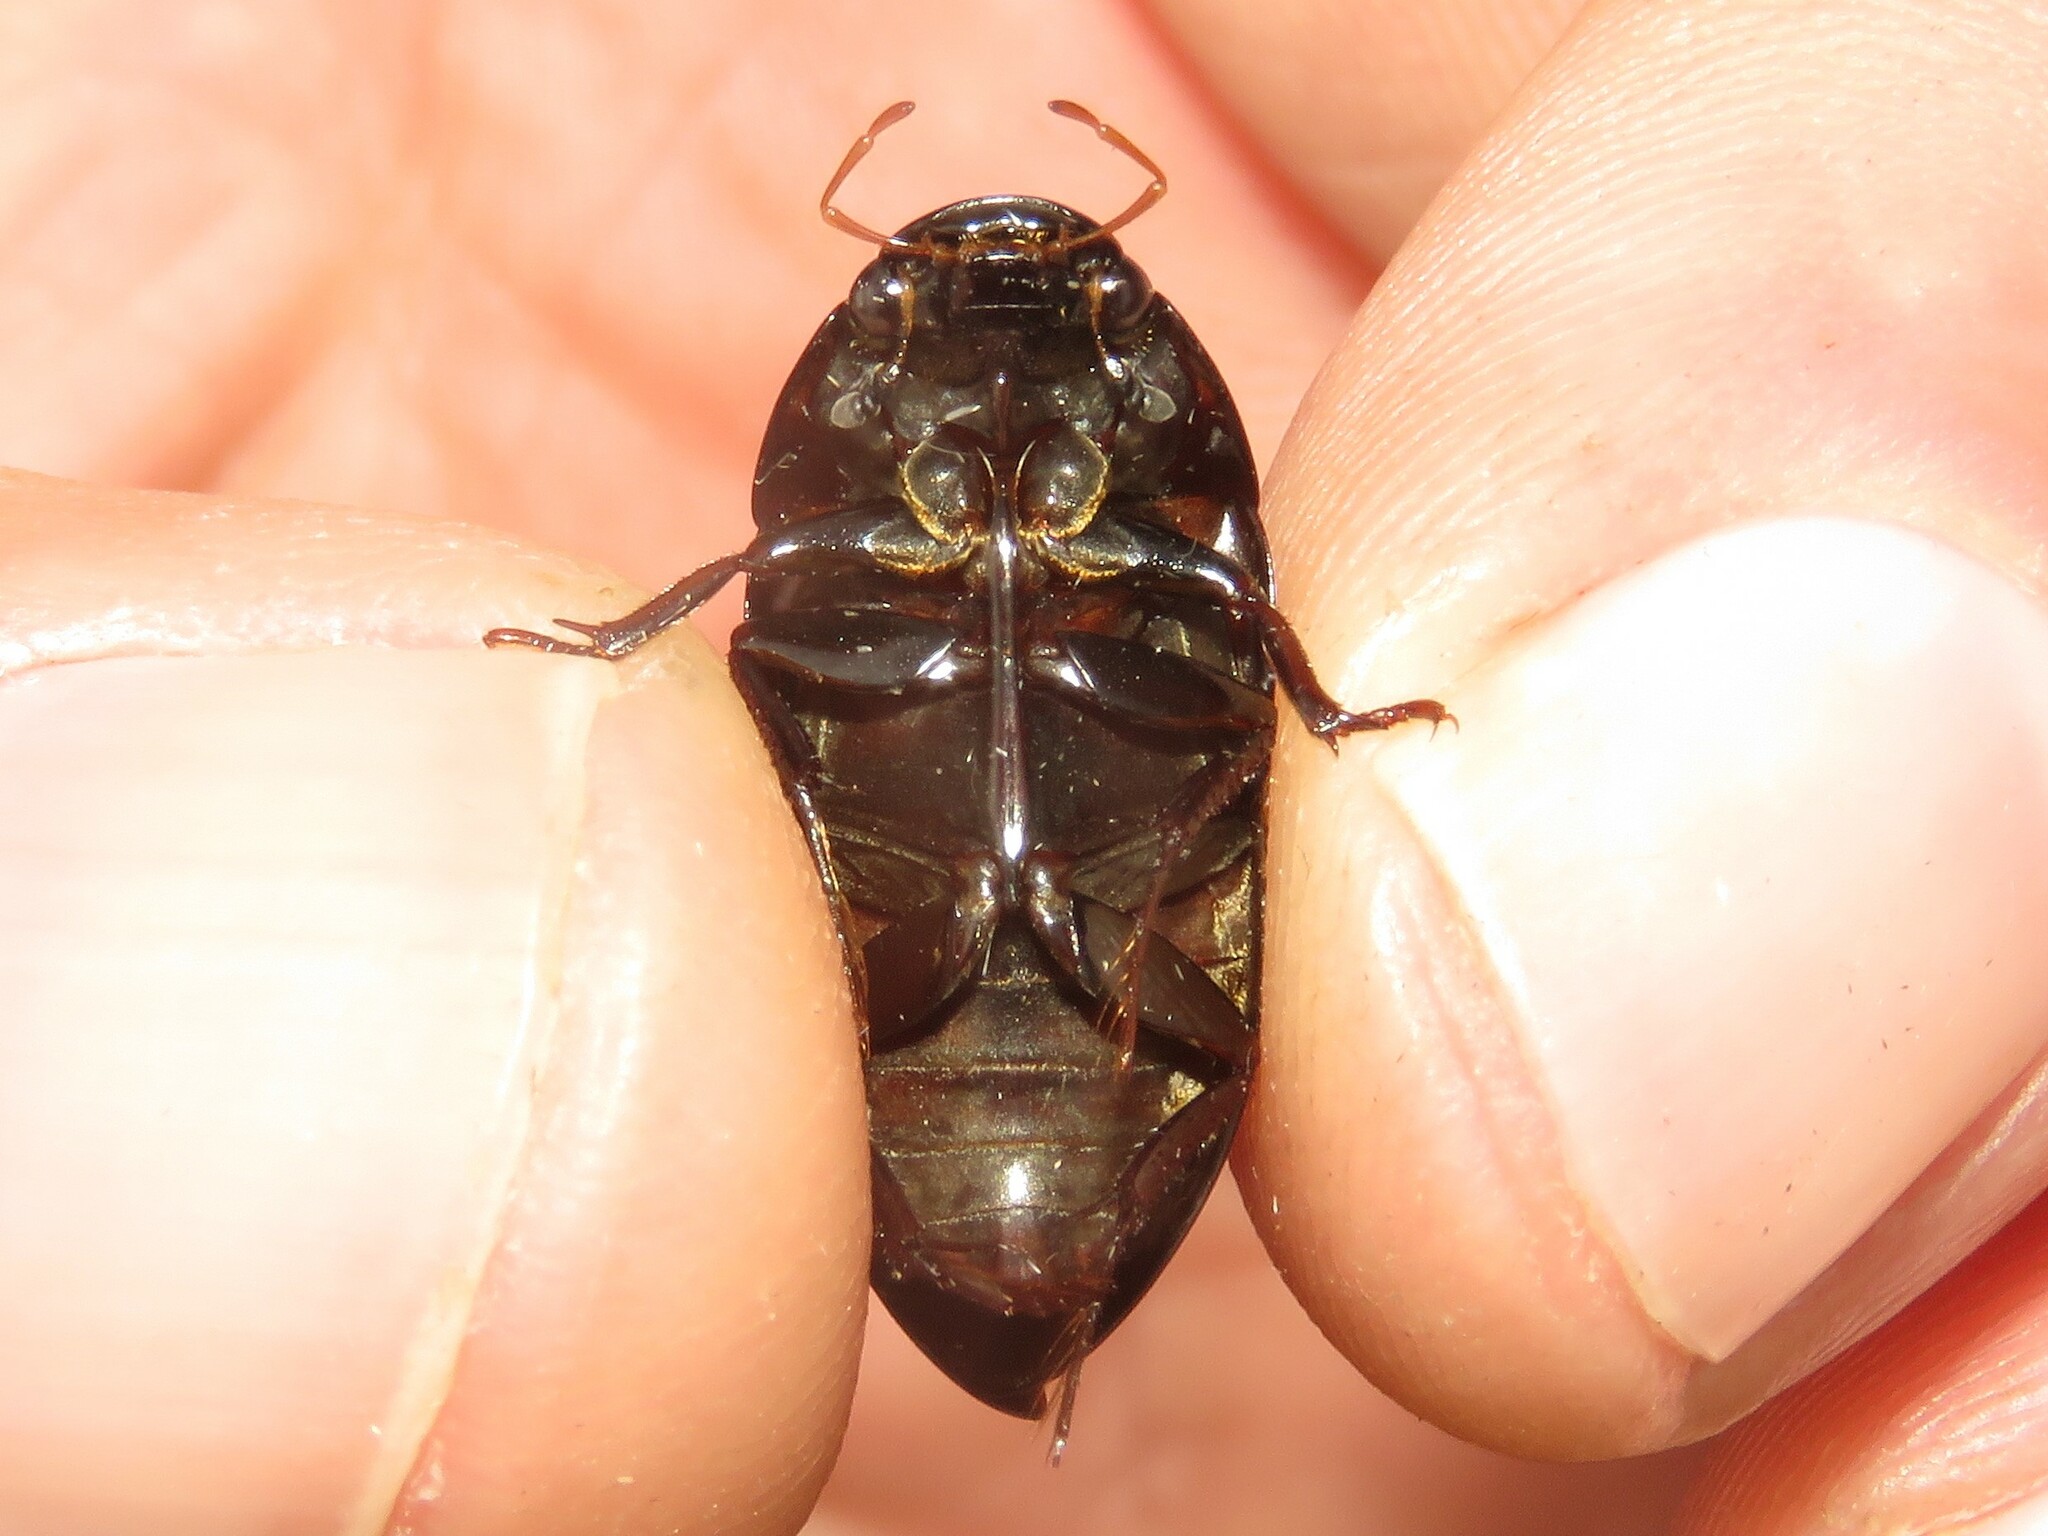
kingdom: Animalia
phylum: Arthropoda
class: Insecta
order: Coleoptera
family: Hydrophilidae
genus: Hydrochara
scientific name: Hydrochara
